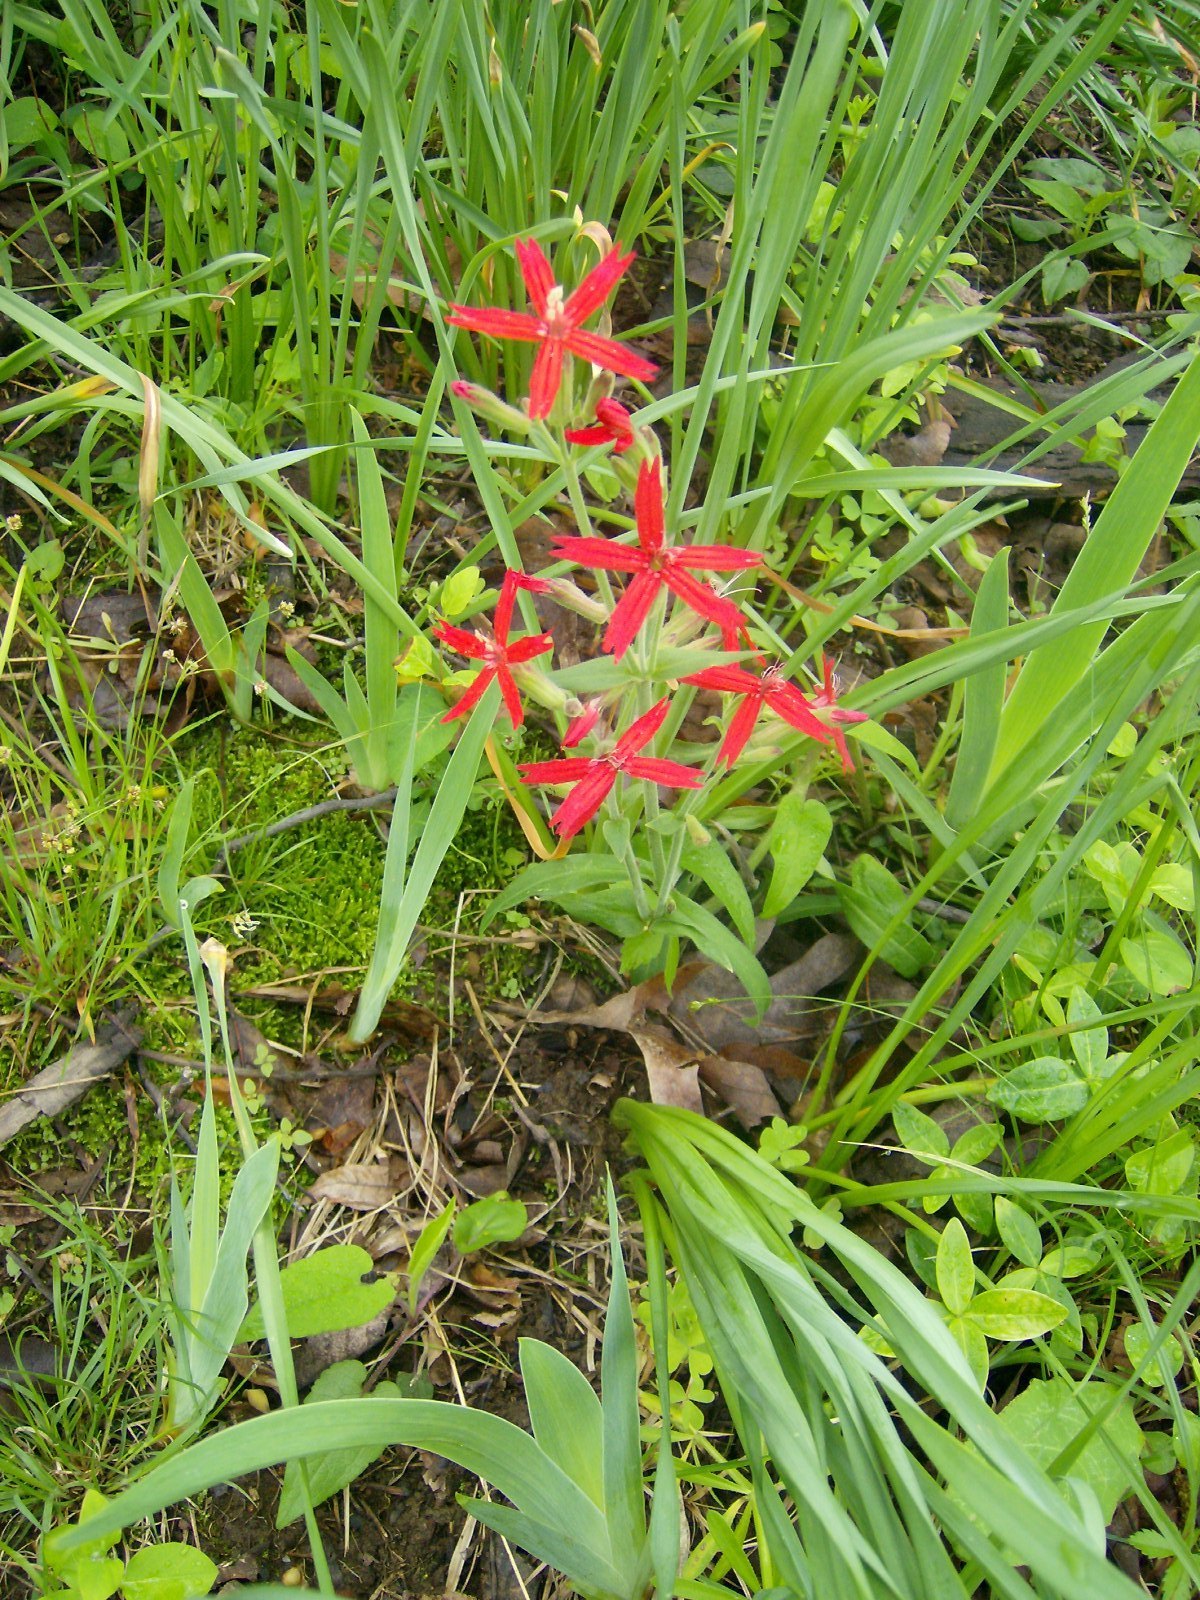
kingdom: Plantae
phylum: Tracheophyta
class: Magnoliopsida
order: Caryophyllales
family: Caryophyllaceae
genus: Silene
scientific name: Silene virginica
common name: Fire-pink
